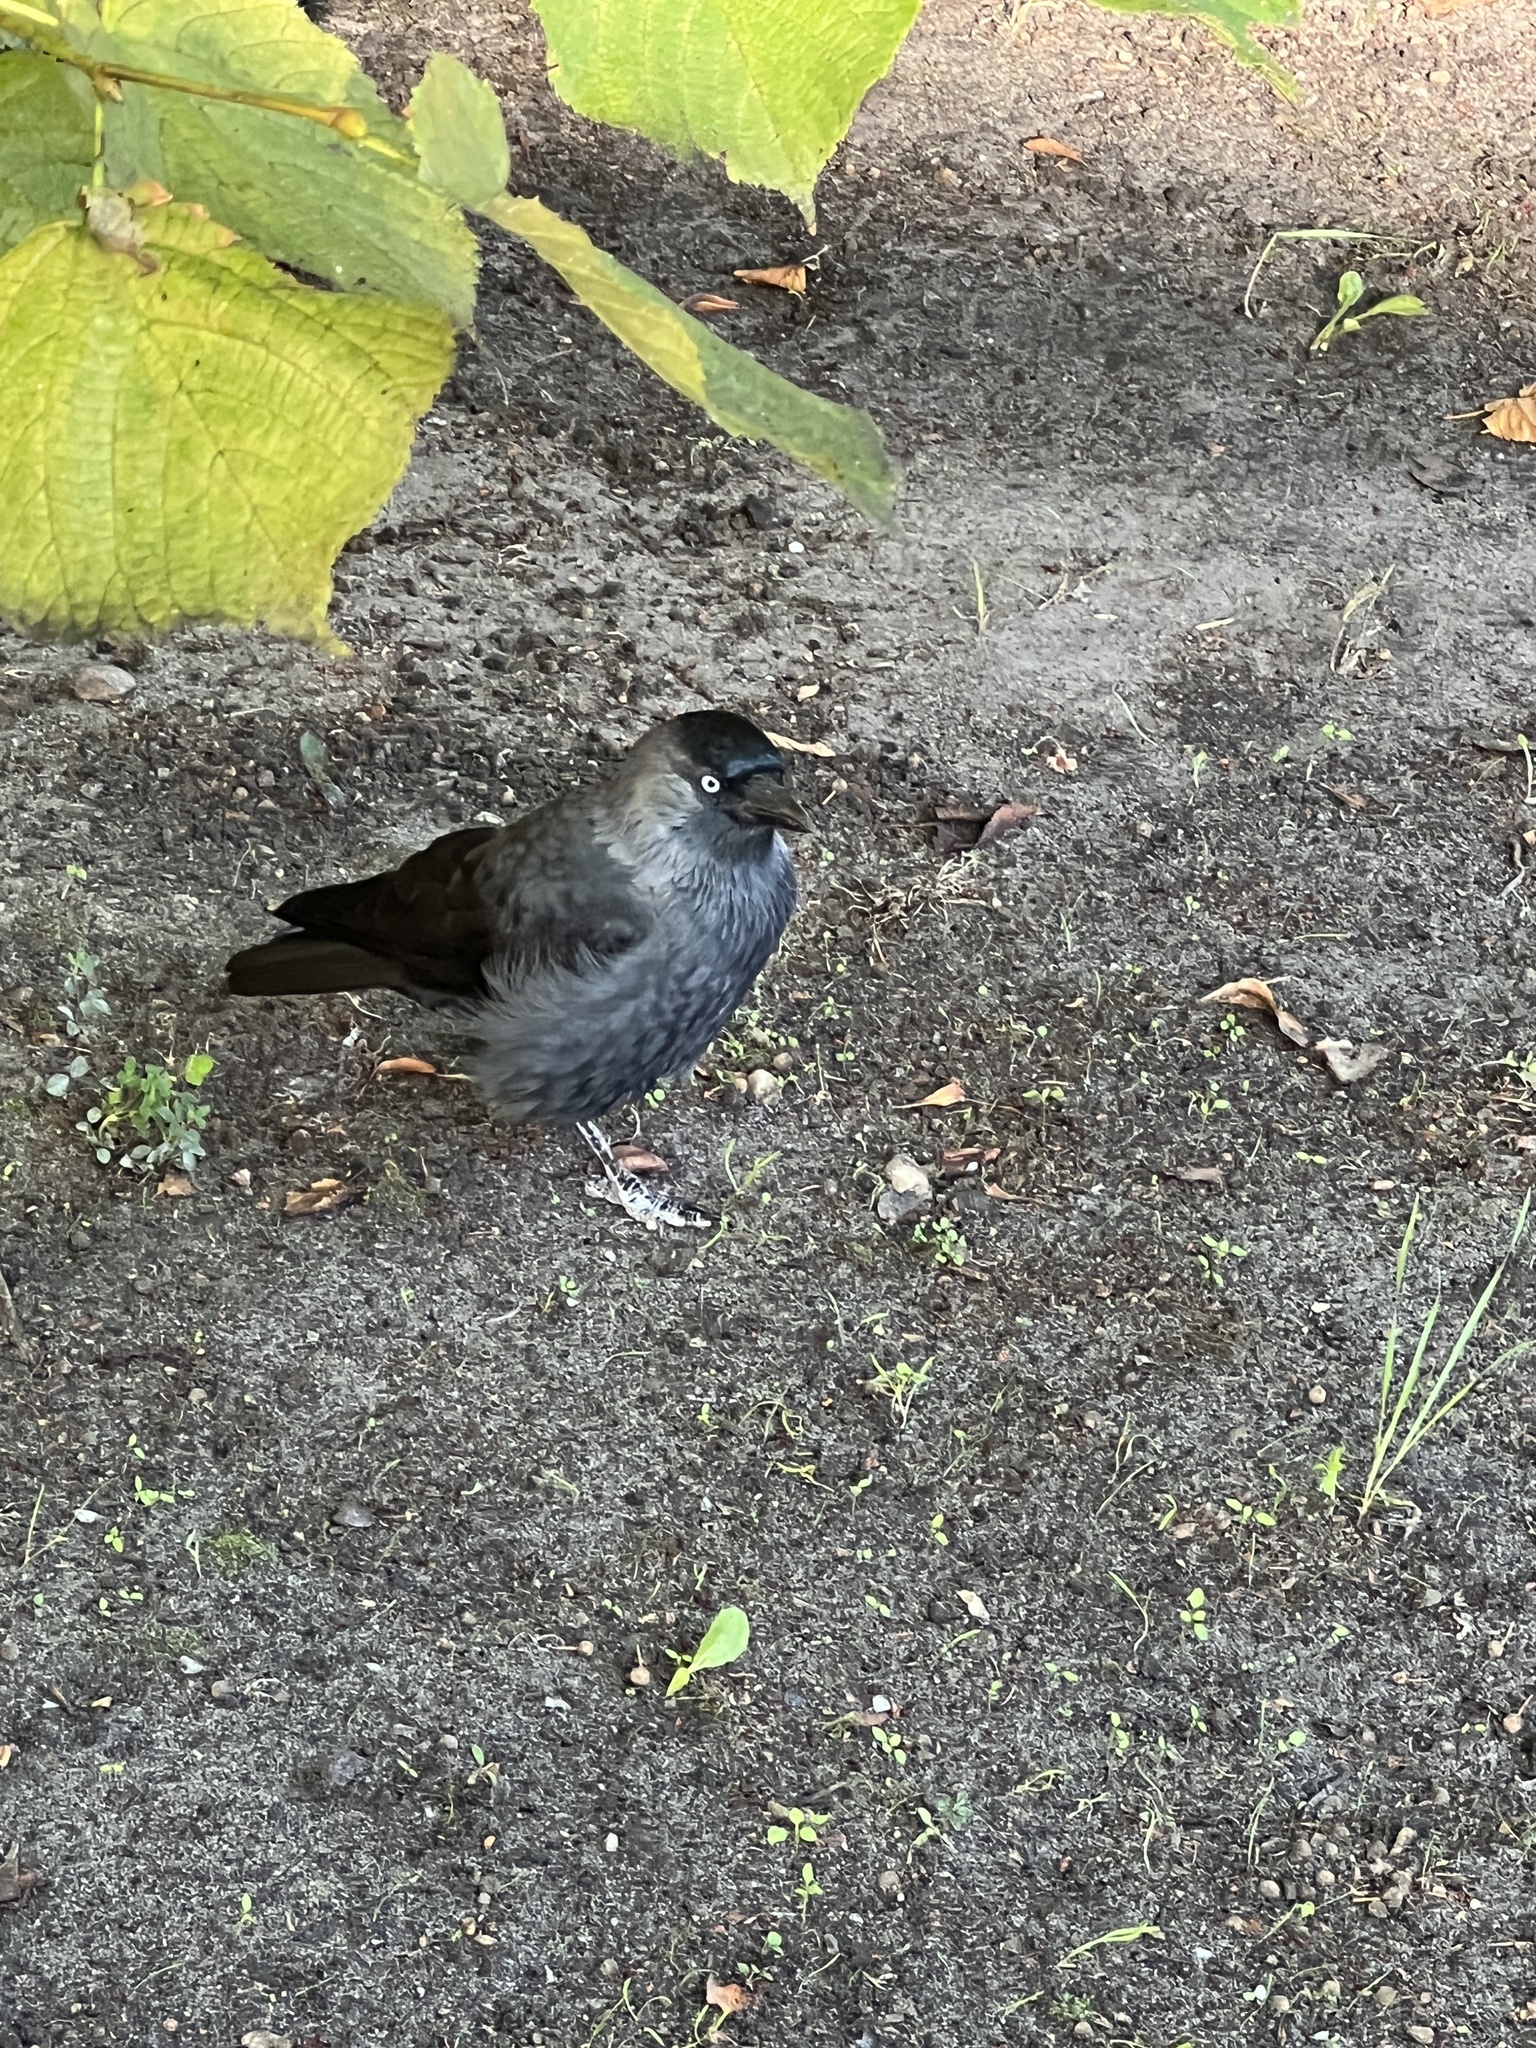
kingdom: Animalia
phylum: Chordata
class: Aves
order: Passeriformes
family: Corvidae
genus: Coloeus
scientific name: Coloeus monedula
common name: Western jackdaw
